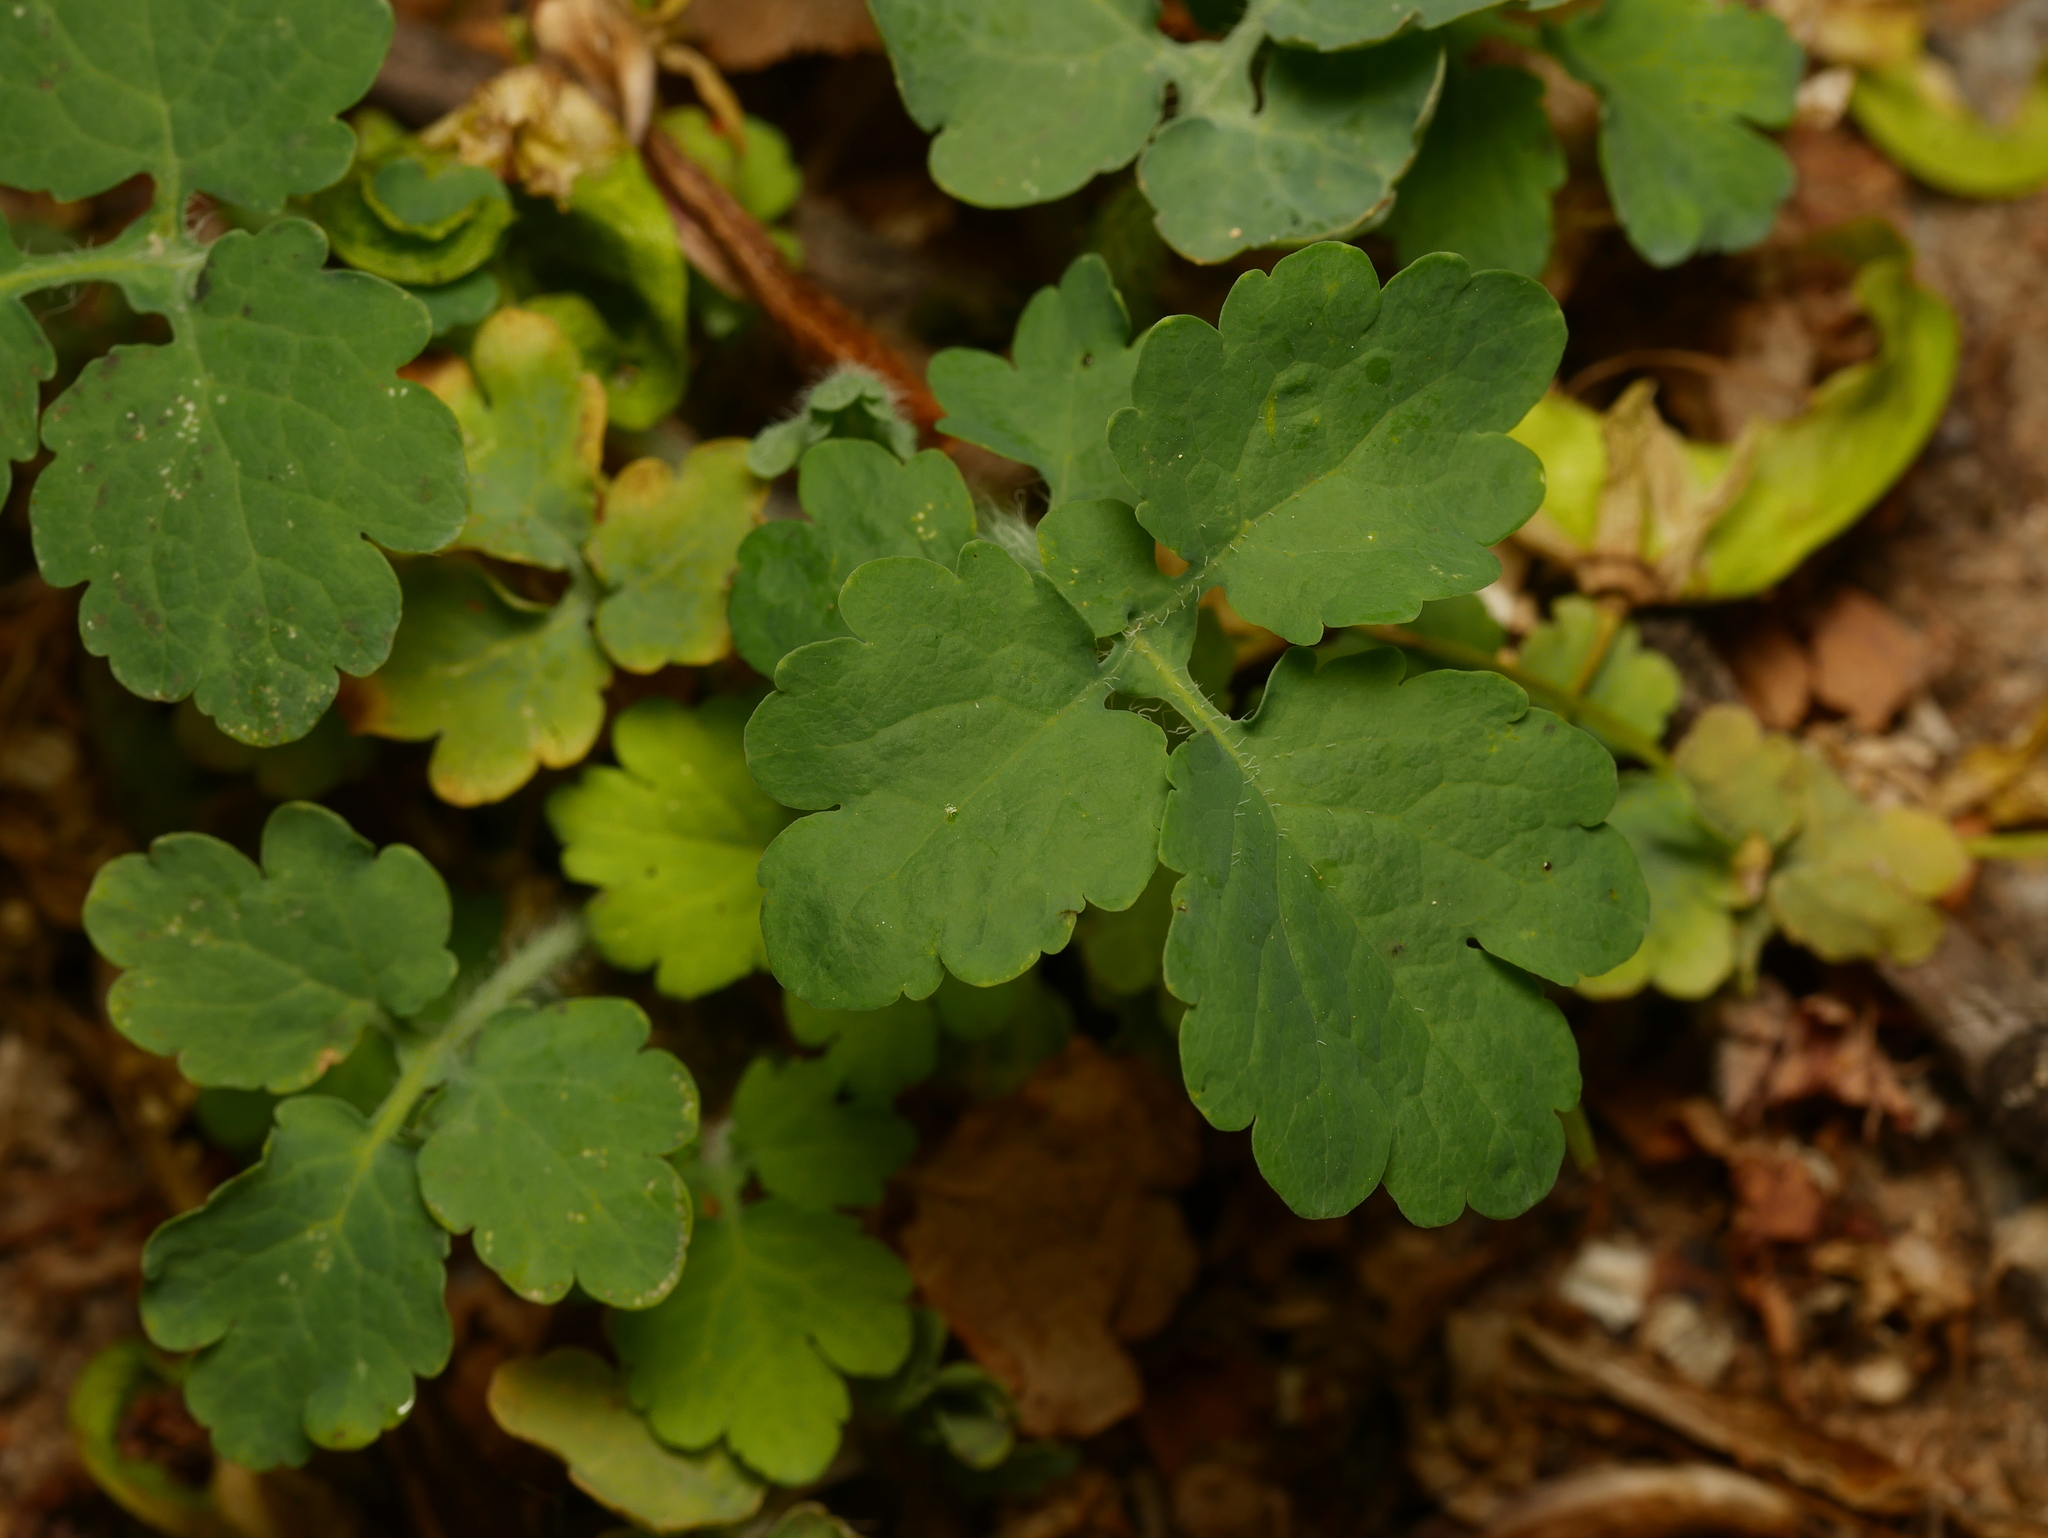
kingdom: Plantae
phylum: Tracheophyta
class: Magnoliopsida
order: Ranunculales
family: Papaveraceae
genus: Chelidonium
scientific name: Chelidonium majus
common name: Greater celandine
